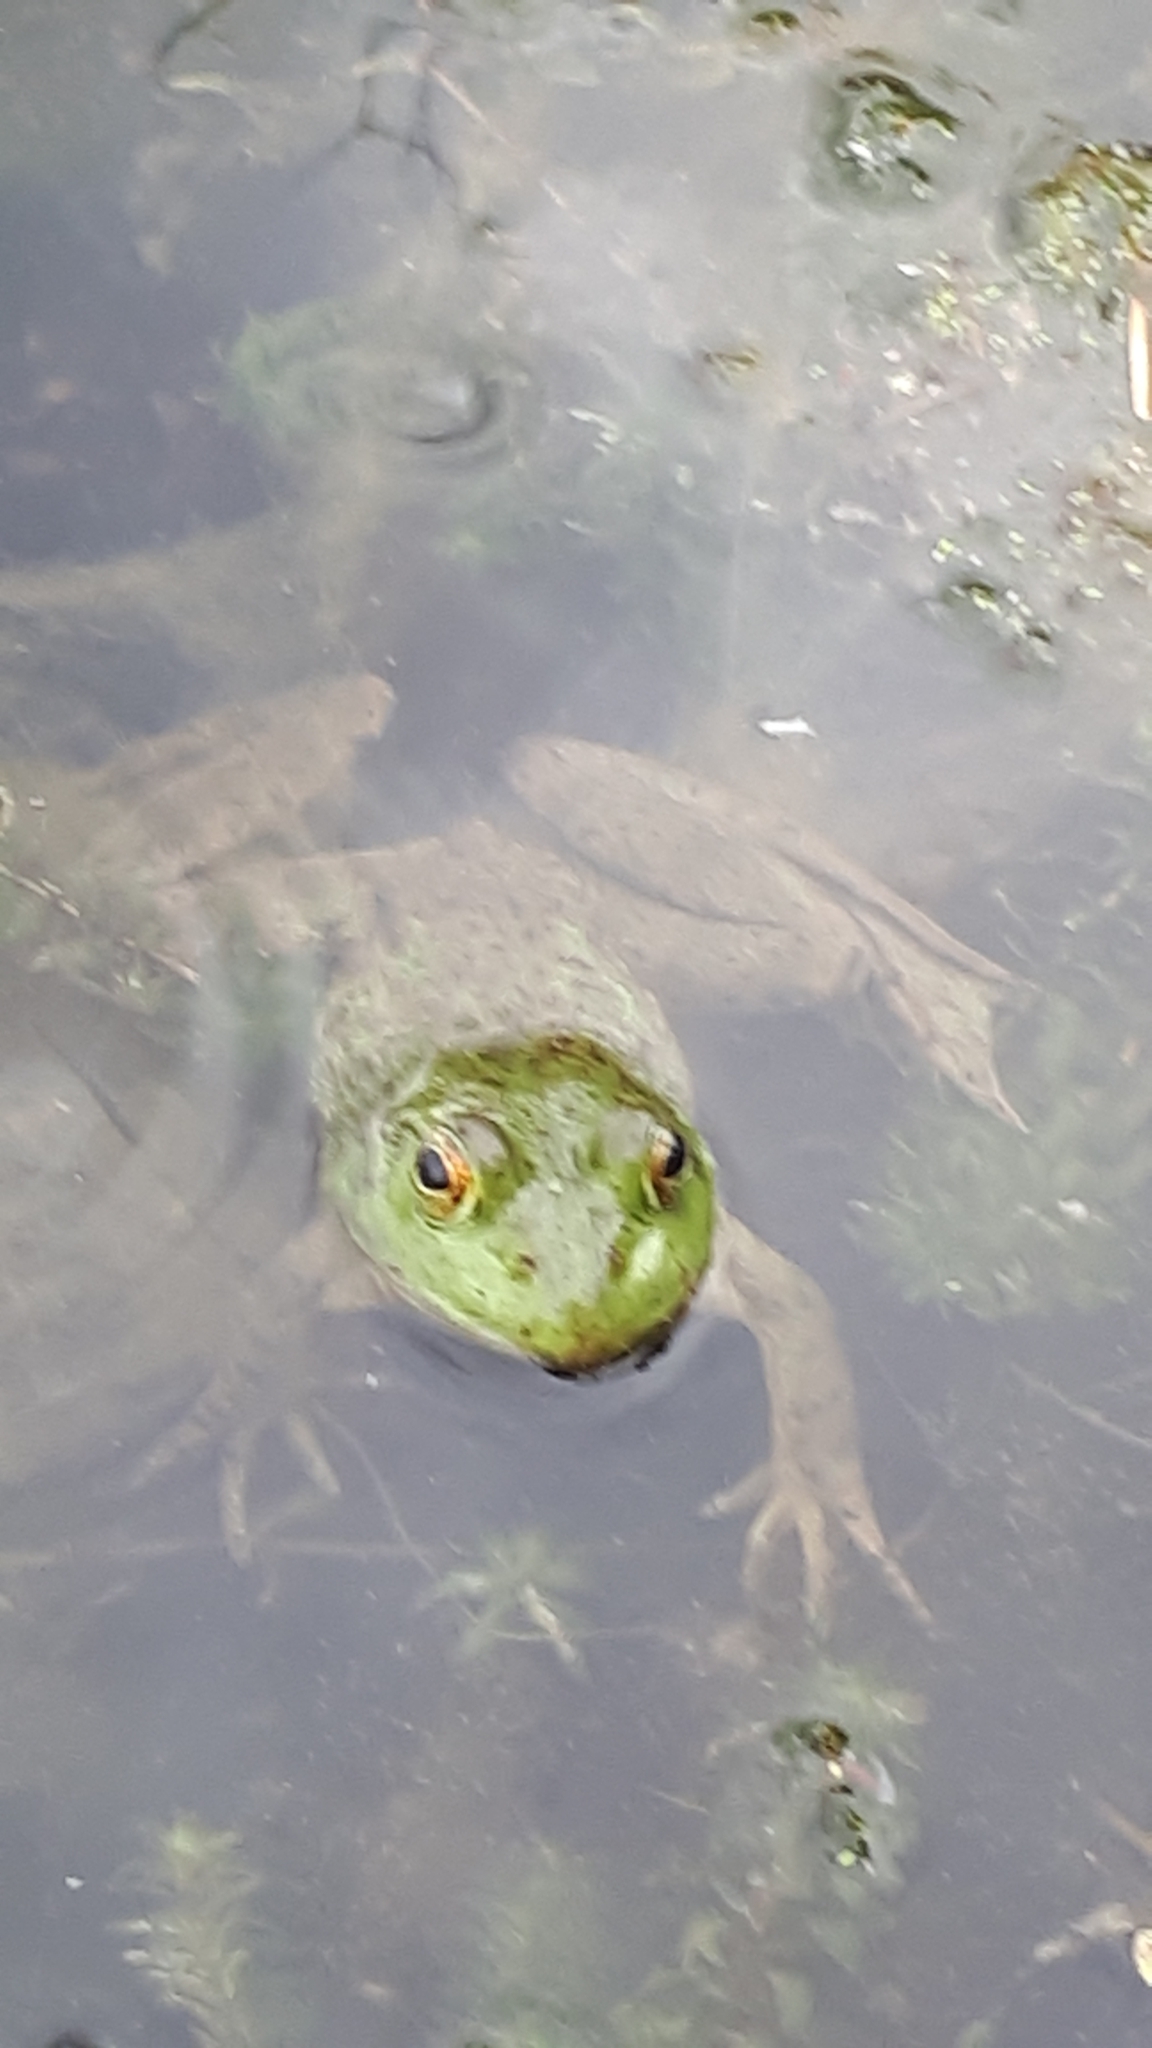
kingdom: Animalia
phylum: Chordata
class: Amphibia
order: Anura
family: Ranidae
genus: Lithobates
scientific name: Lithobates catesbeianus
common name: American bullfrog
